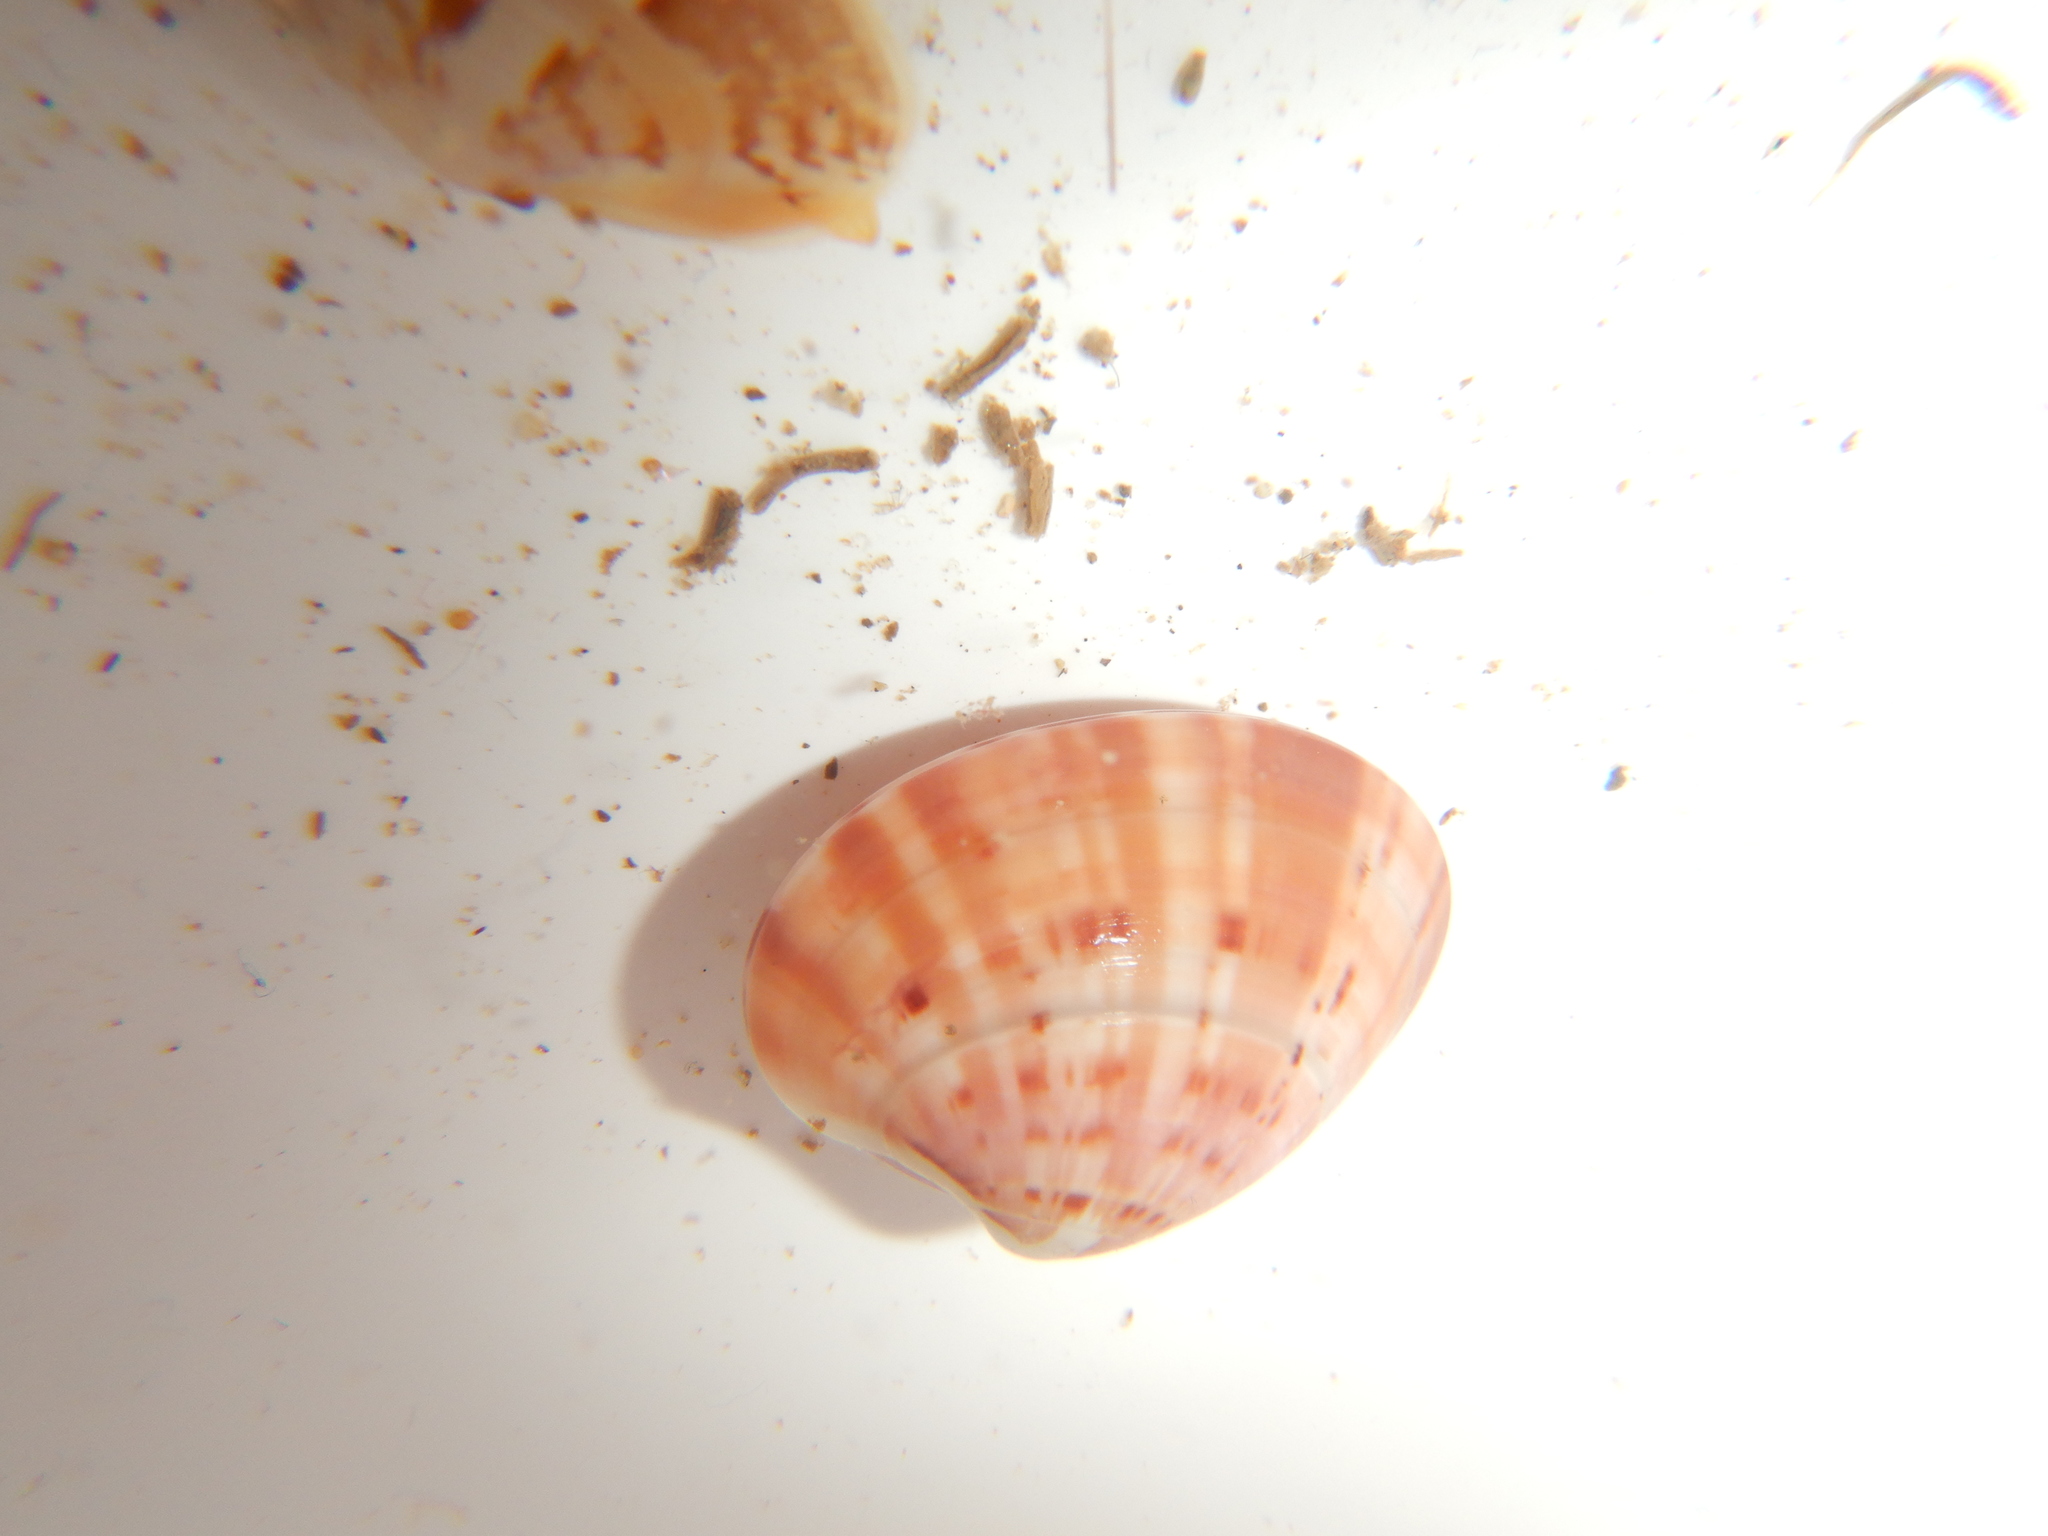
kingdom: Animalia
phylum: Mollusca
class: Bivalvia
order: Venerida
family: Veneridae
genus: Callista
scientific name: Callista chione
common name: Brown venus
